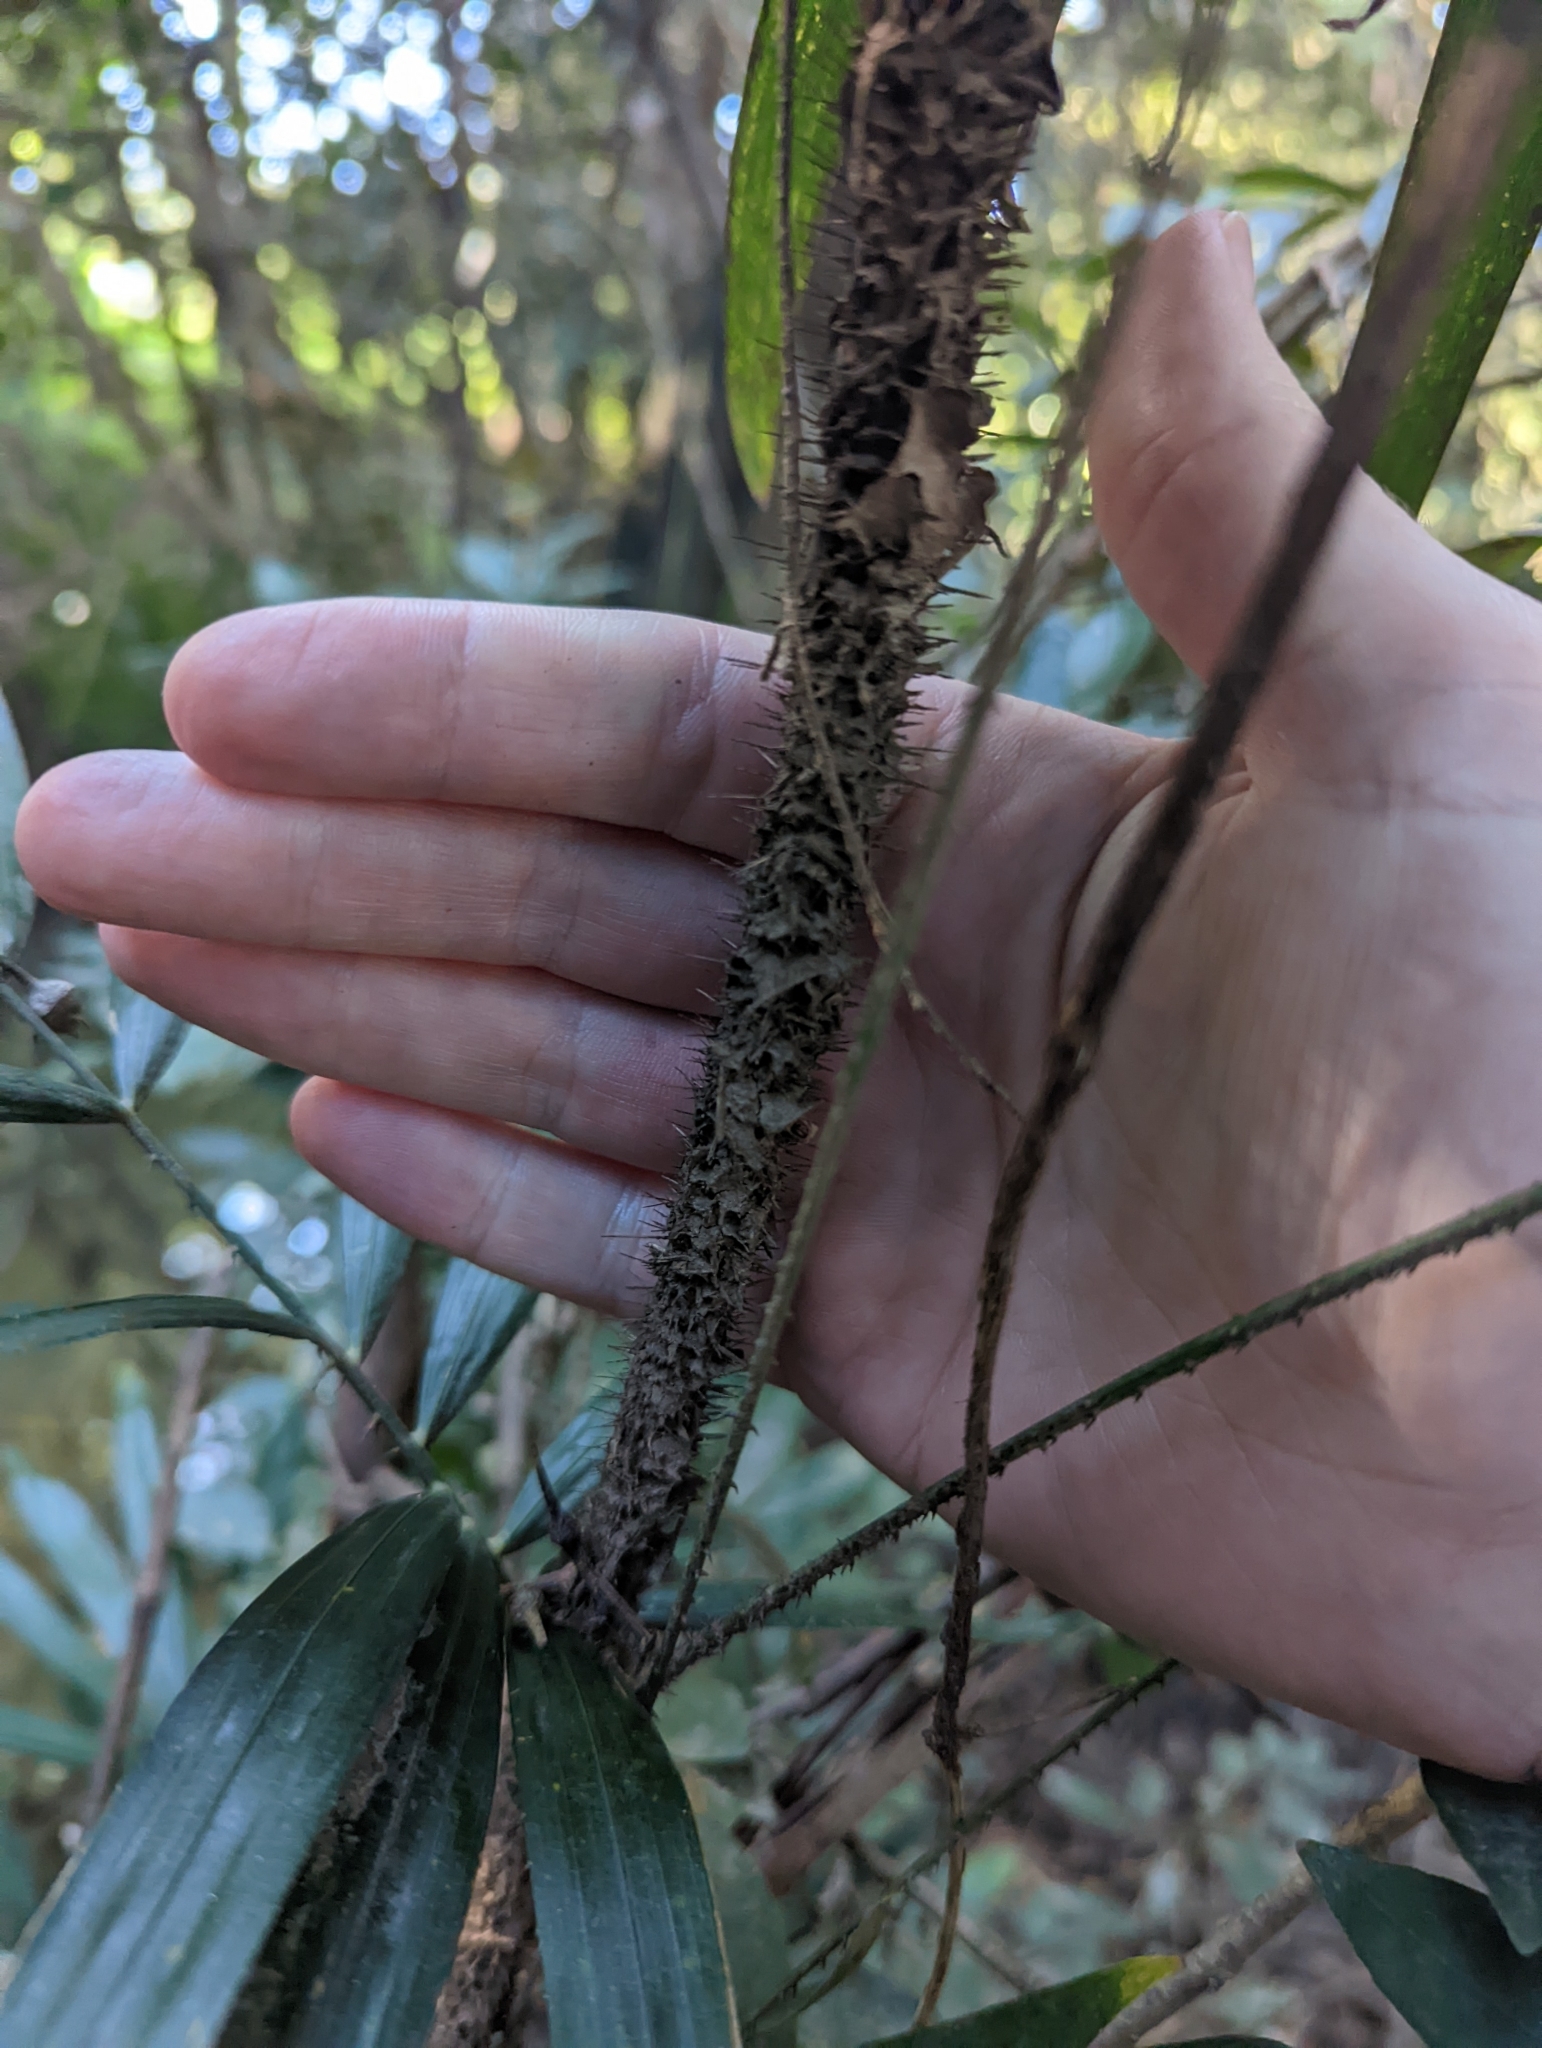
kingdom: Plantae
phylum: Tracheophyta
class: Liliopsida
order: Arecales
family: Arecaceae
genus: Calamus
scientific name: Calamus muelleri
